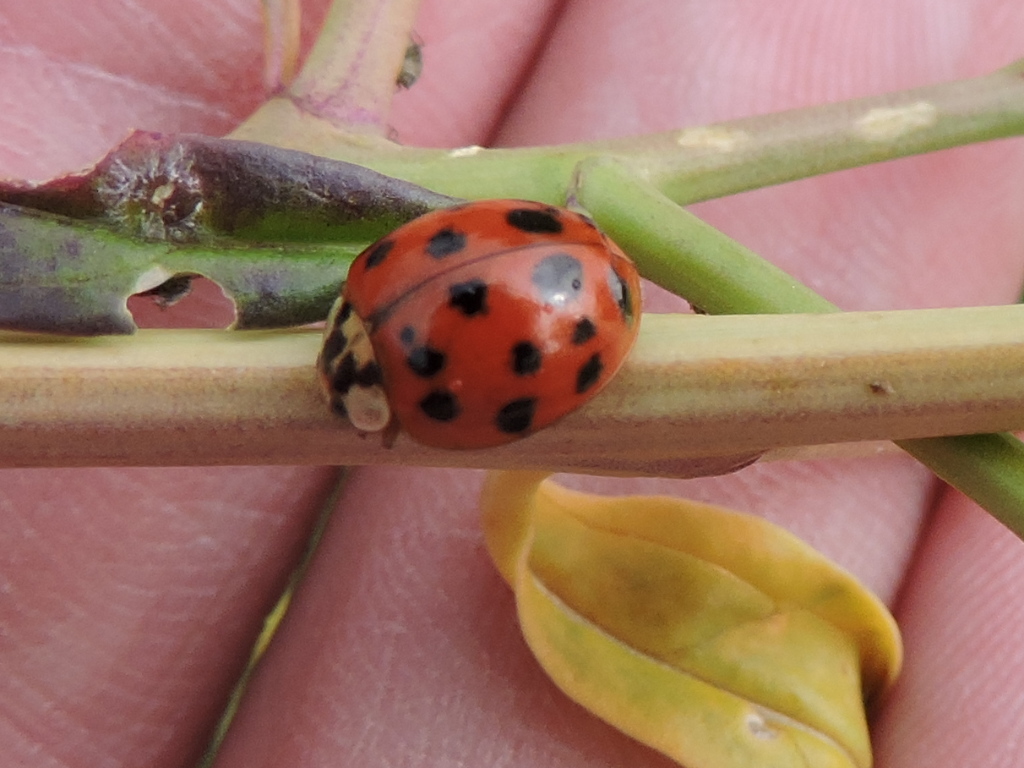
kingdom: Animalia
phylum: Arthropoda
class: Insecta
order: Coleoptera
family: Coccinellidae
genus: Harmonia
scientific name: Harmonia axyridis
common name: Harlequin ladybird
